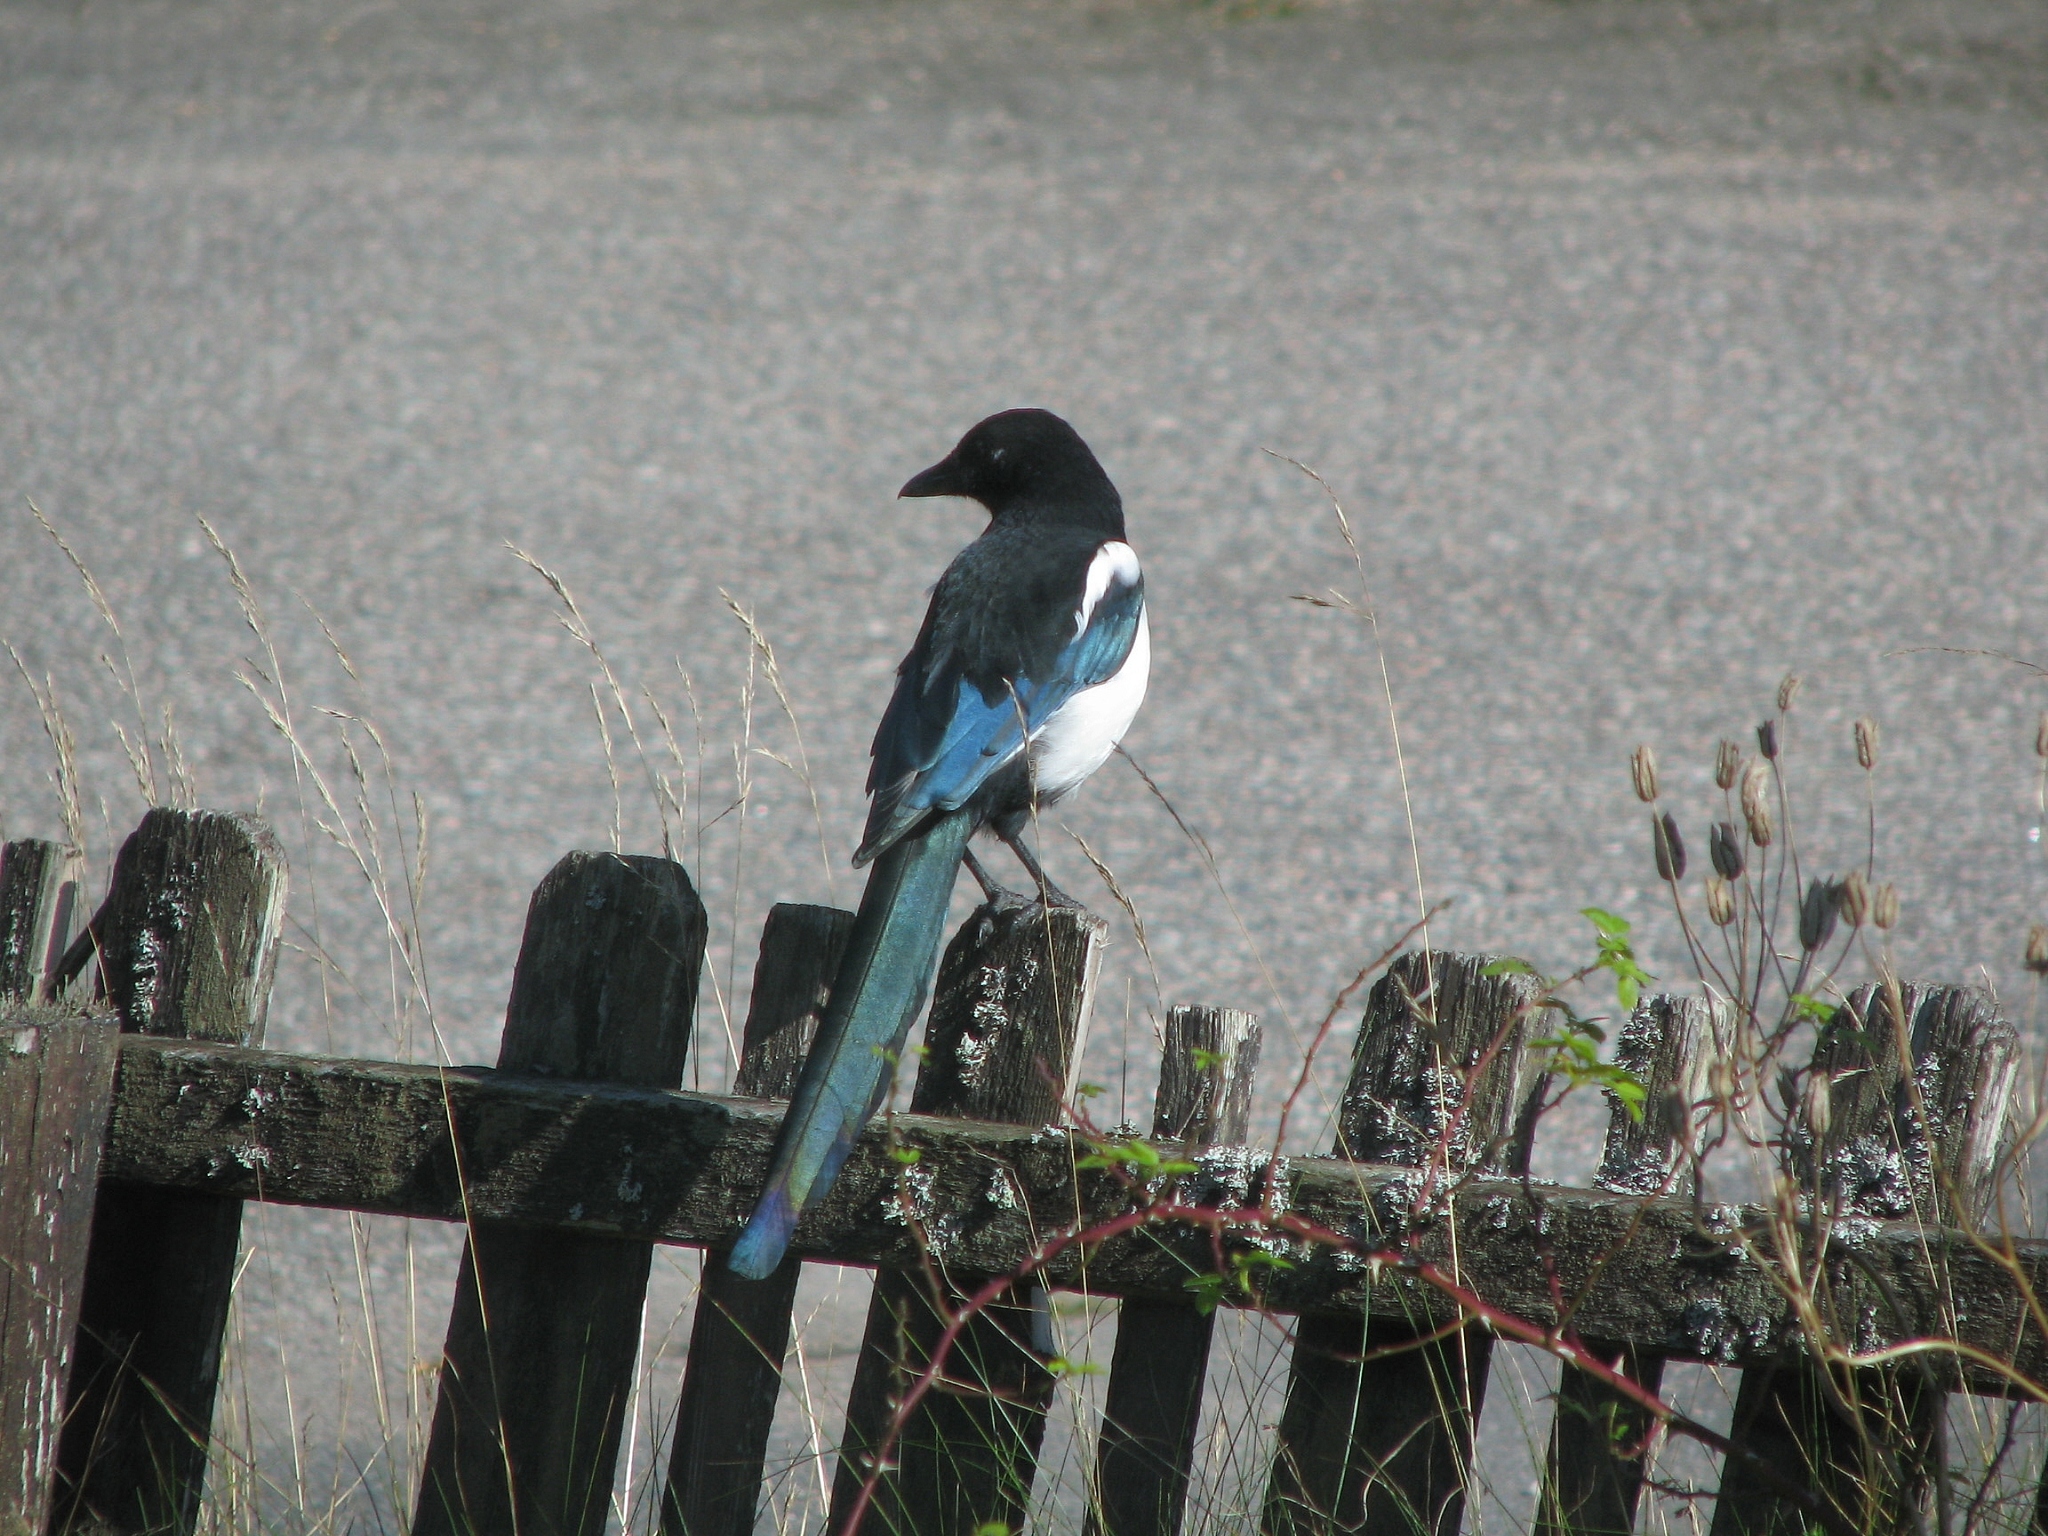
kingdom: Animalia
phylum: Chordata
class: Aves
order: Passeriformes
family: Corvidae
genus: Pica
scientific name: Pica pica
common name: Eurasian magpie
